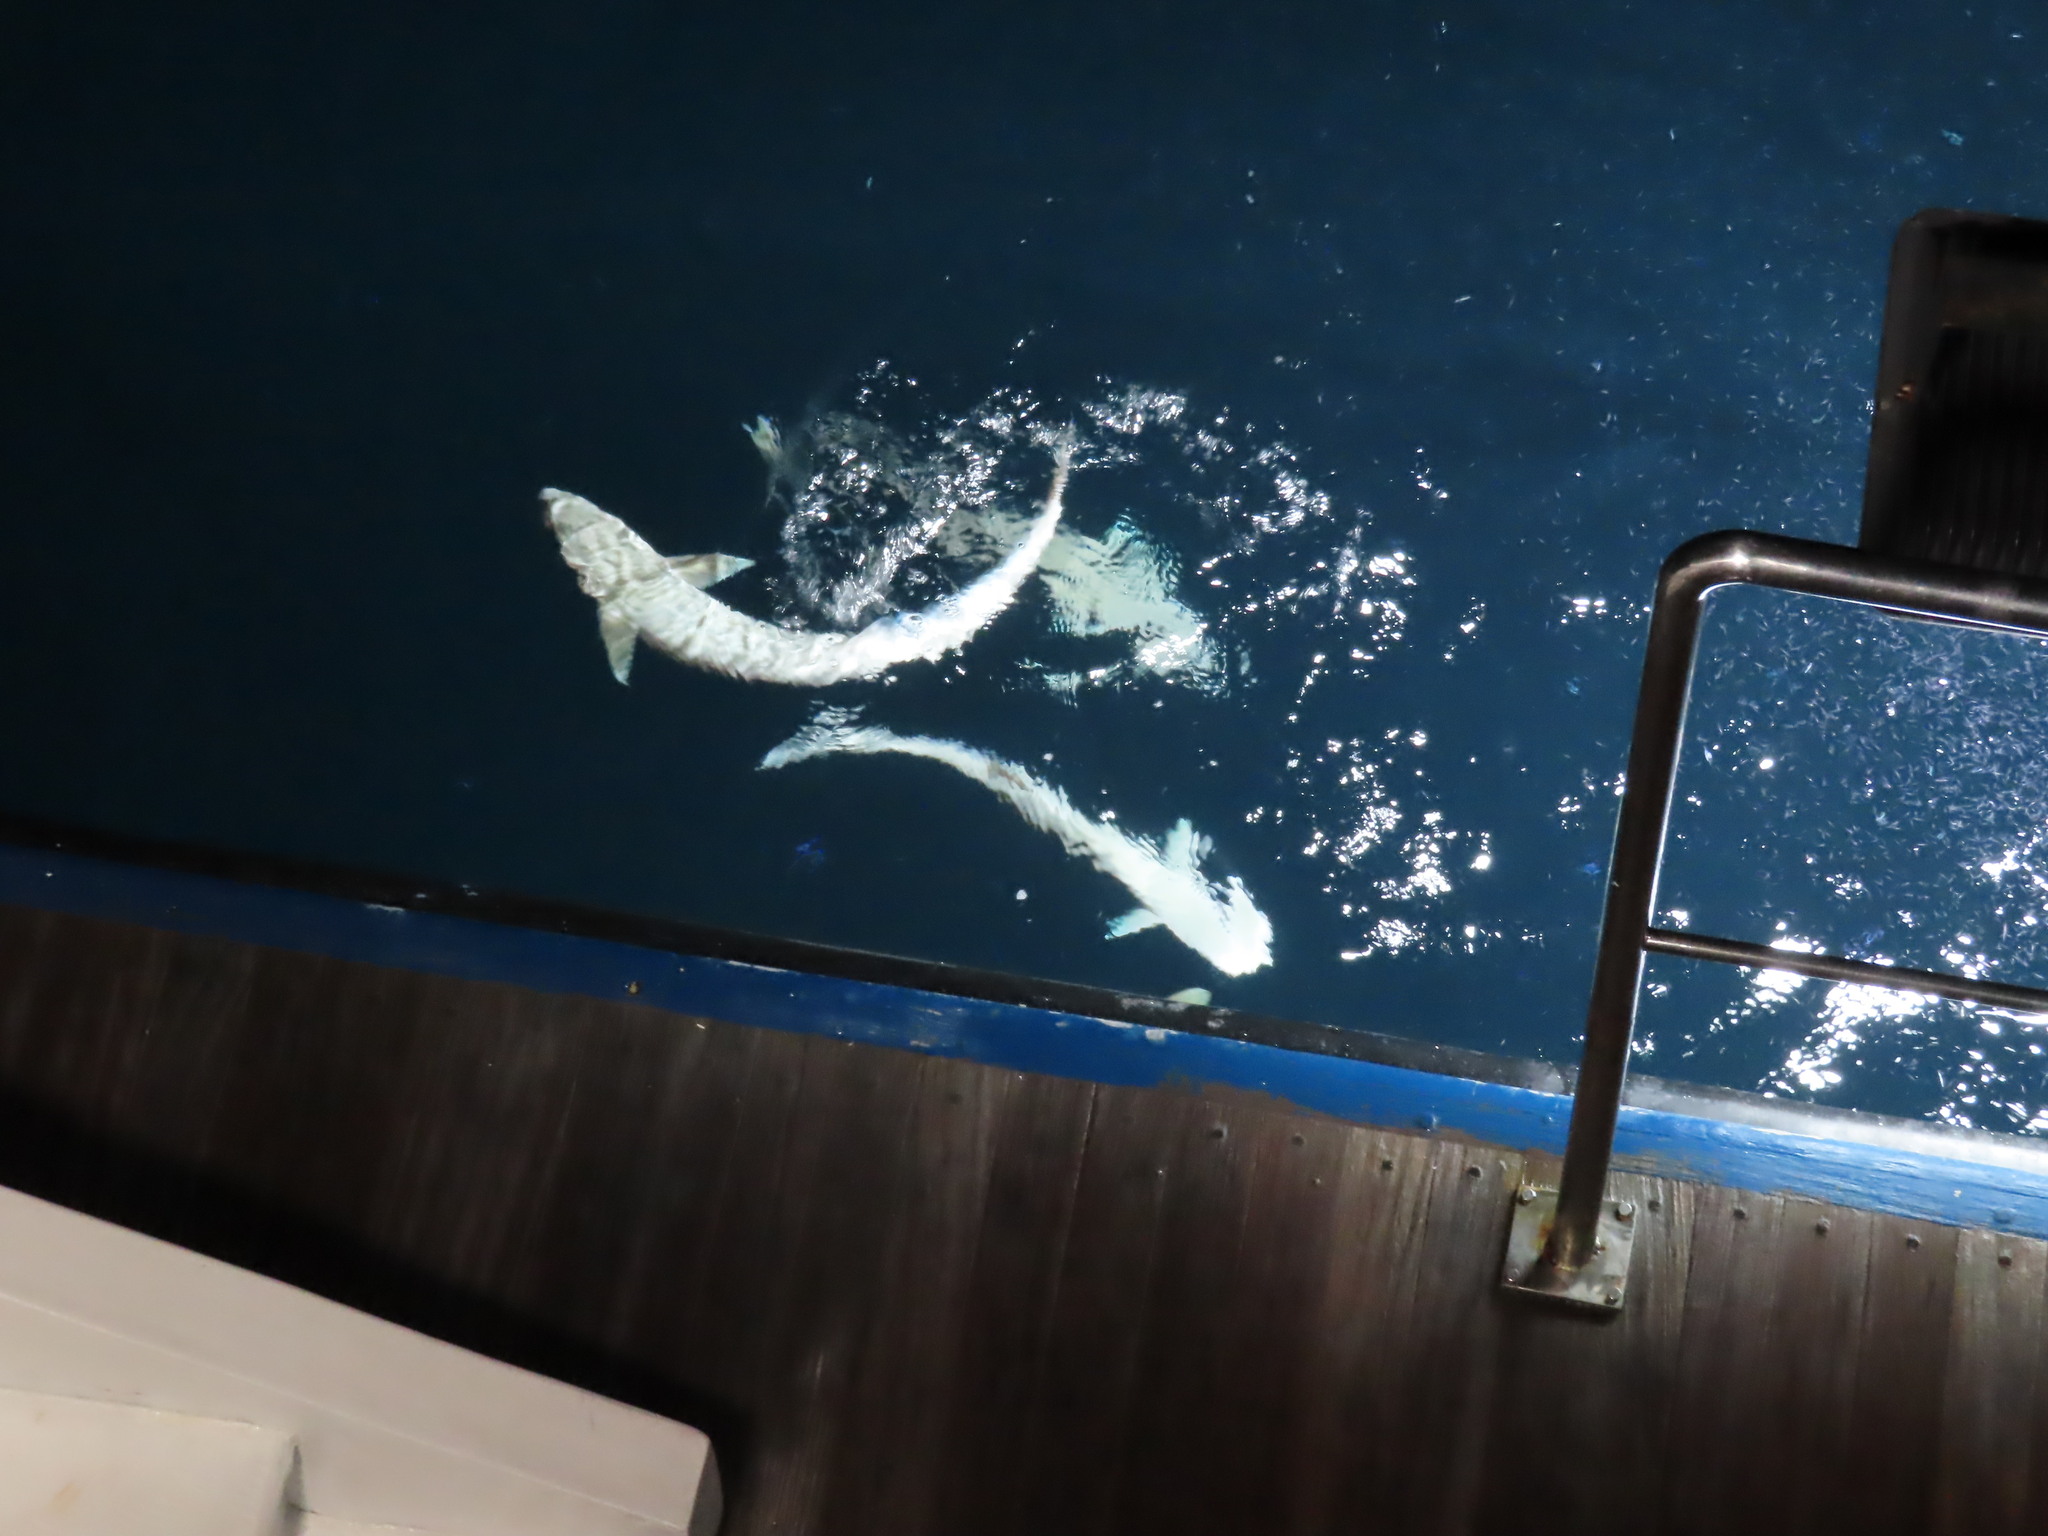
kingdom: Animalia
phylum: Chordata
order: Perciformes
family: Echeneidae
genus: Echeneis
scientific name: Echeneis naucrates
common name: Sharksucker
